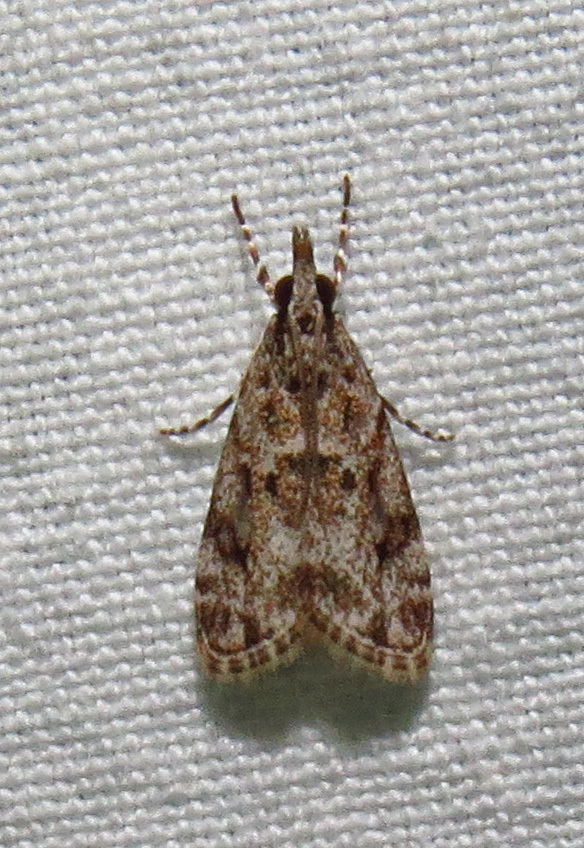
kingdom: Animalia
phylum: Arthropoda
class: Insecta
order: Lepidoptera
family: Crambidae
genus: Eudonia
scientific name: Eudonia heterosalis
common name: Mcdunnough's eudonia
